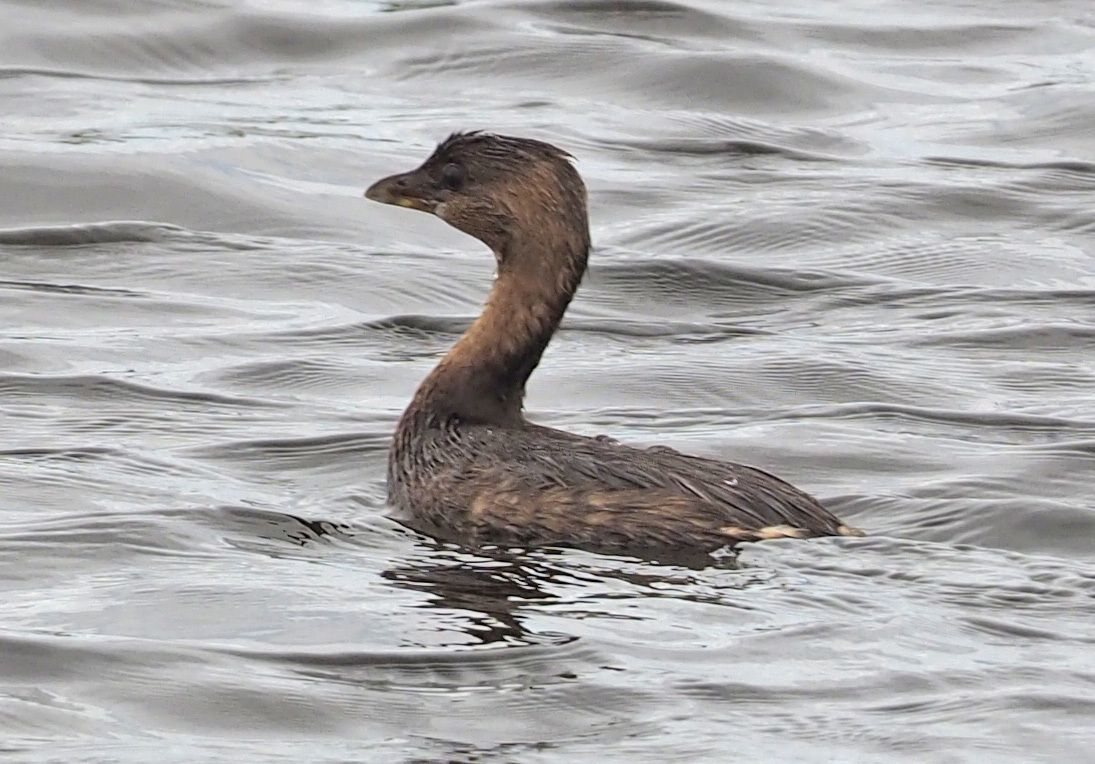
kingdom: Animalia
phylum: Chordata
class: Aves
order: Podicipediformes
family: Podicipedidae
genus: Podilymbus
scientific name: Podilymbus podiceps
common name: Pied-billed grebe
